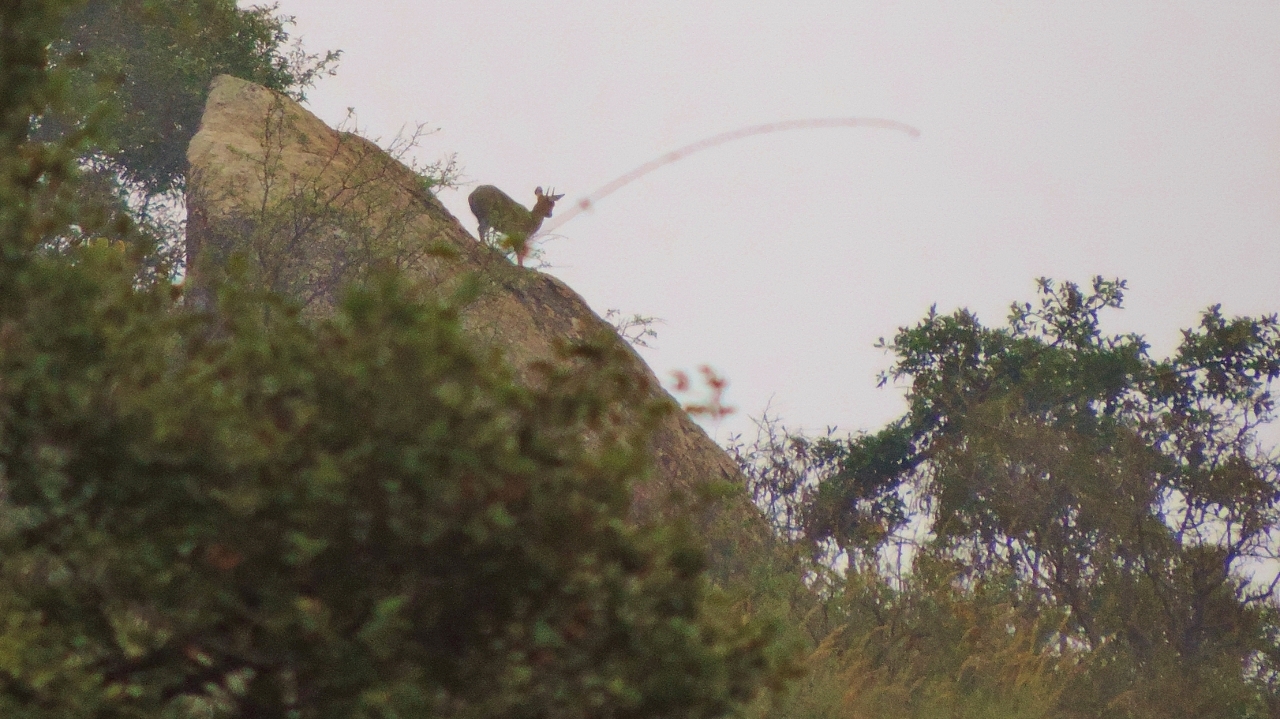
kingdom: Animalia
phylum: Chordata
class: Mammalia
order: Artiodactyla
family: Bovidae
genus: Oreotragus
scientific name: Oreotragus oreotragus
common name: Klipspringer
